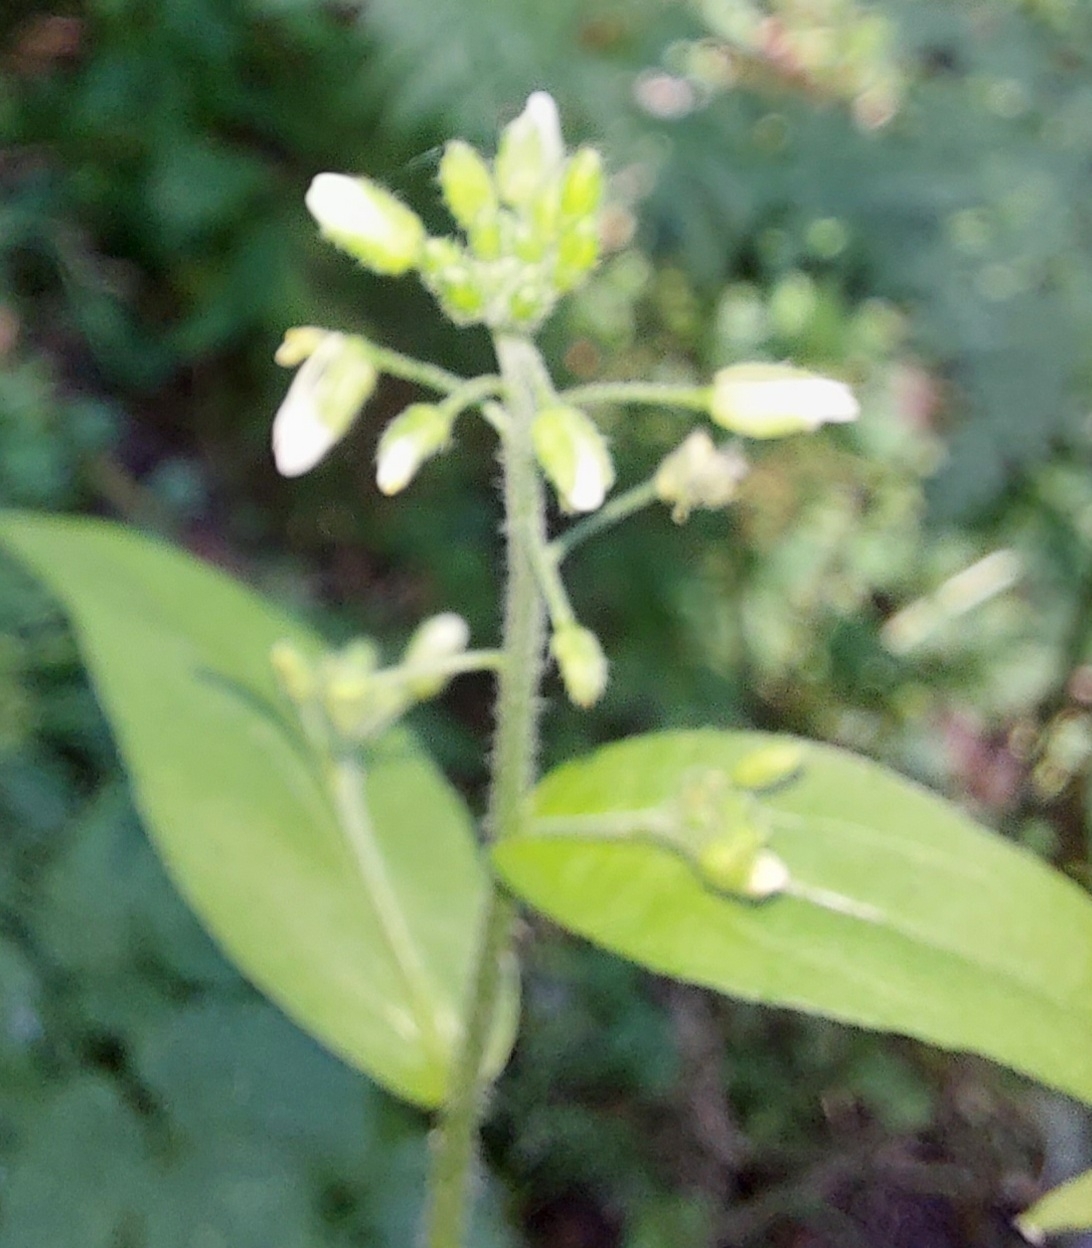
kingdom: Plantae
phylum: Tracheophyta
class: Magnoliopsida
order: Brassicales
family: Brassicaceae
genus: Catolobus
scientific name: Catolobus pendulus
